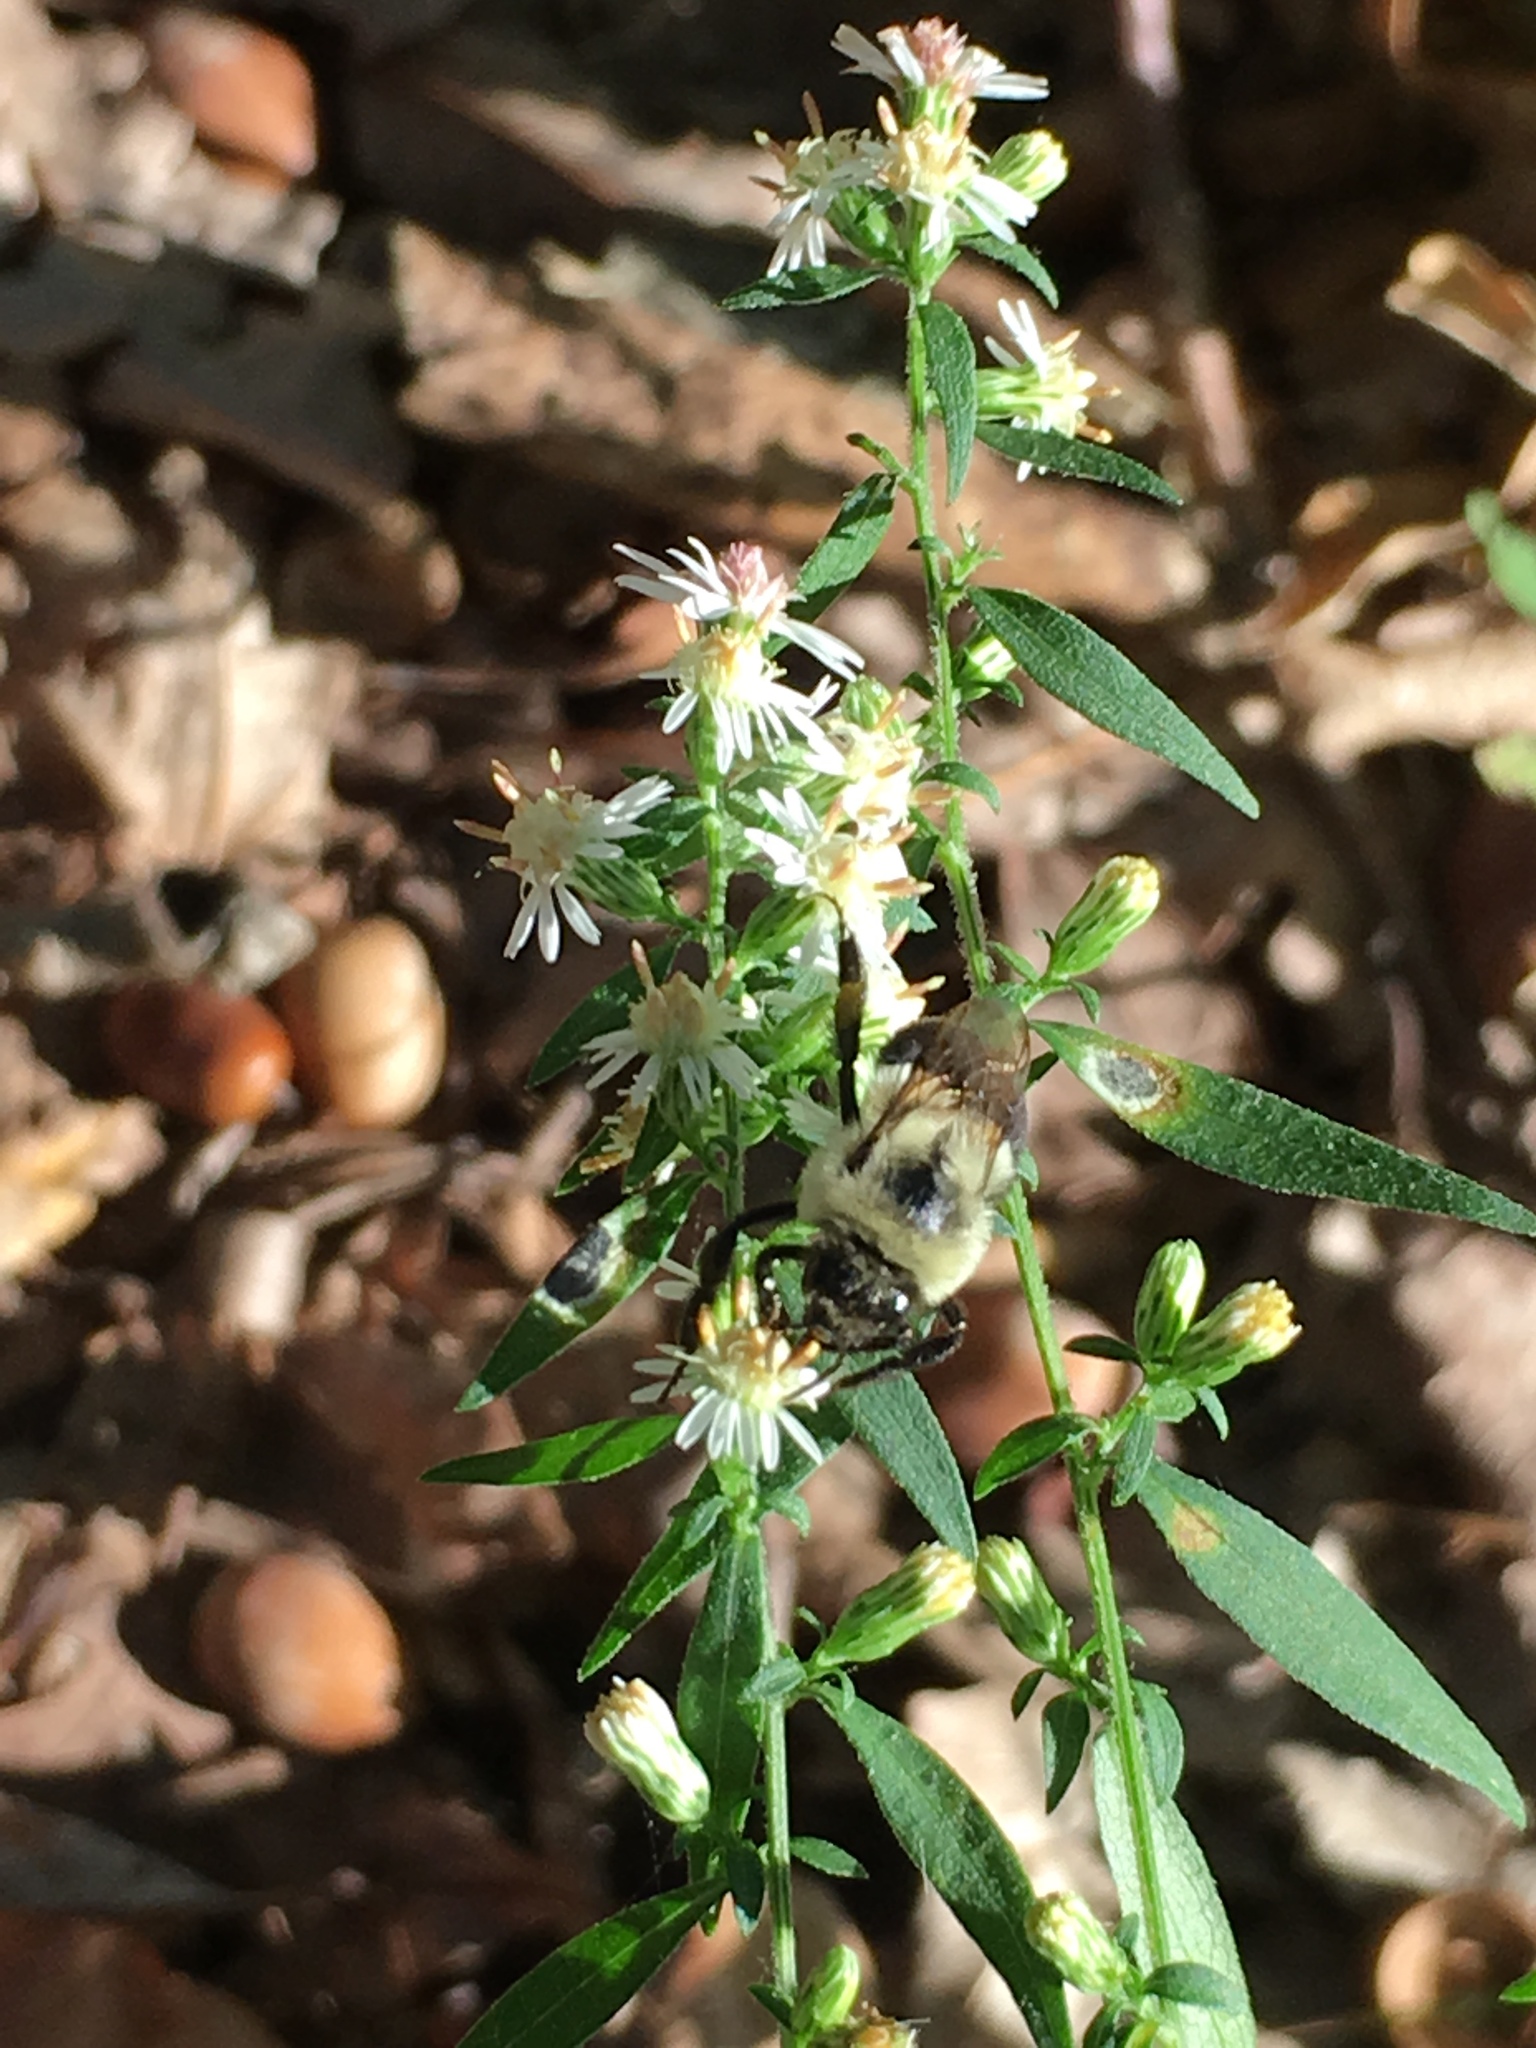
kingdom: Animalia
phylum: Arthropoda
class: Insecta
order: Hymenoptera
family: Apidae
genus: Bombus
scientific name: Bombus impatiens
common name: Common eastern bumble bee
